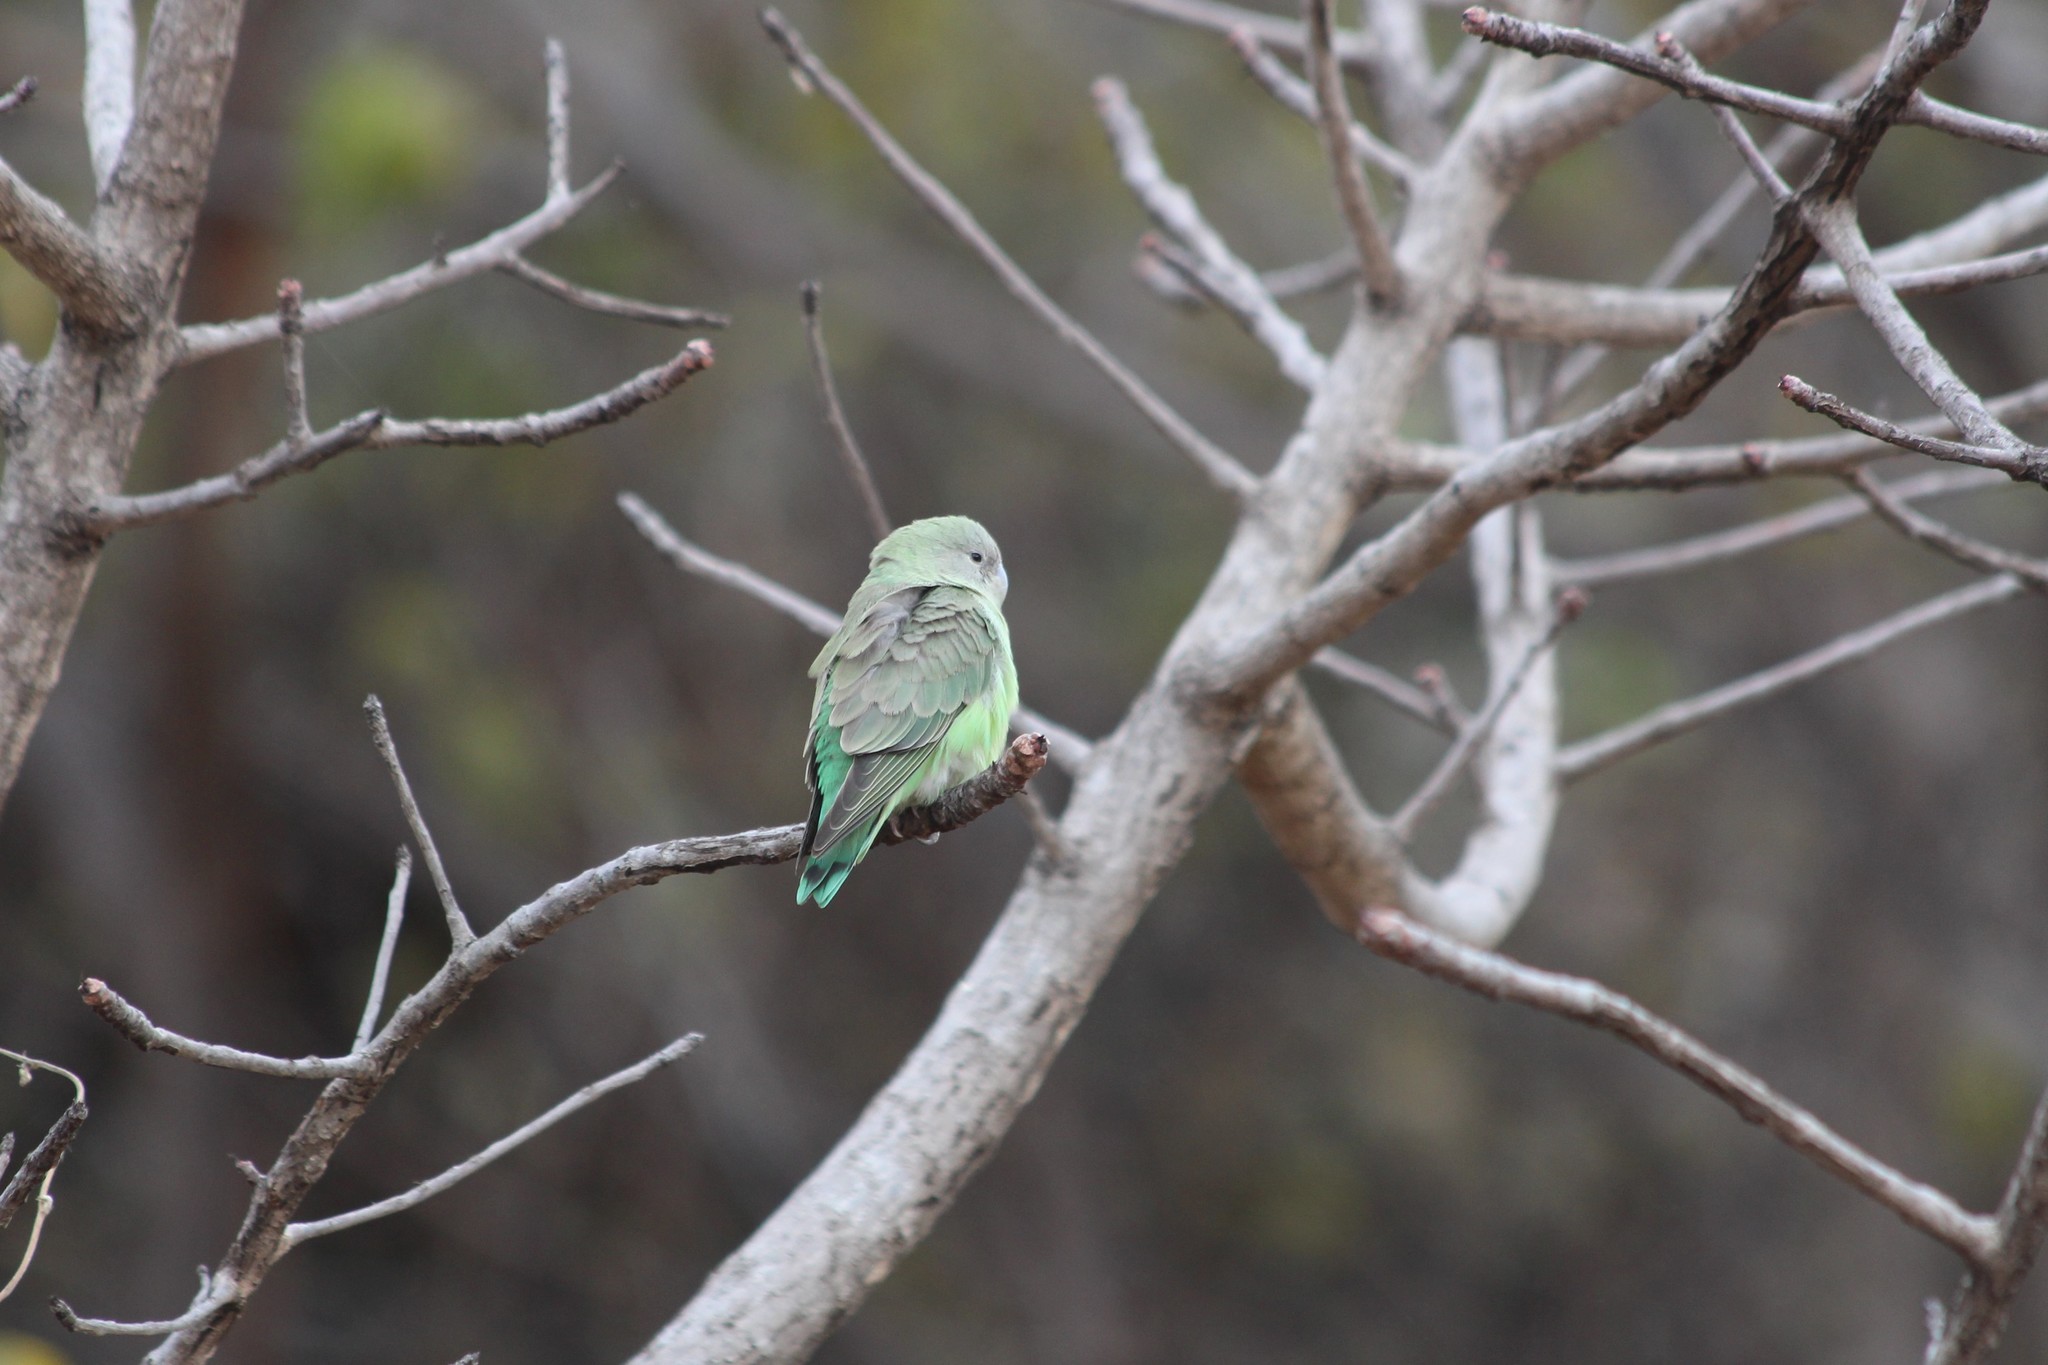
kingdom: Animalia
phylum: Chordata
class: Aves
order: Psittaciformes
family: Psittacidae
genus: Agapornis
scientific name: Agapornis canus
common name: Grey-headed lovebird
